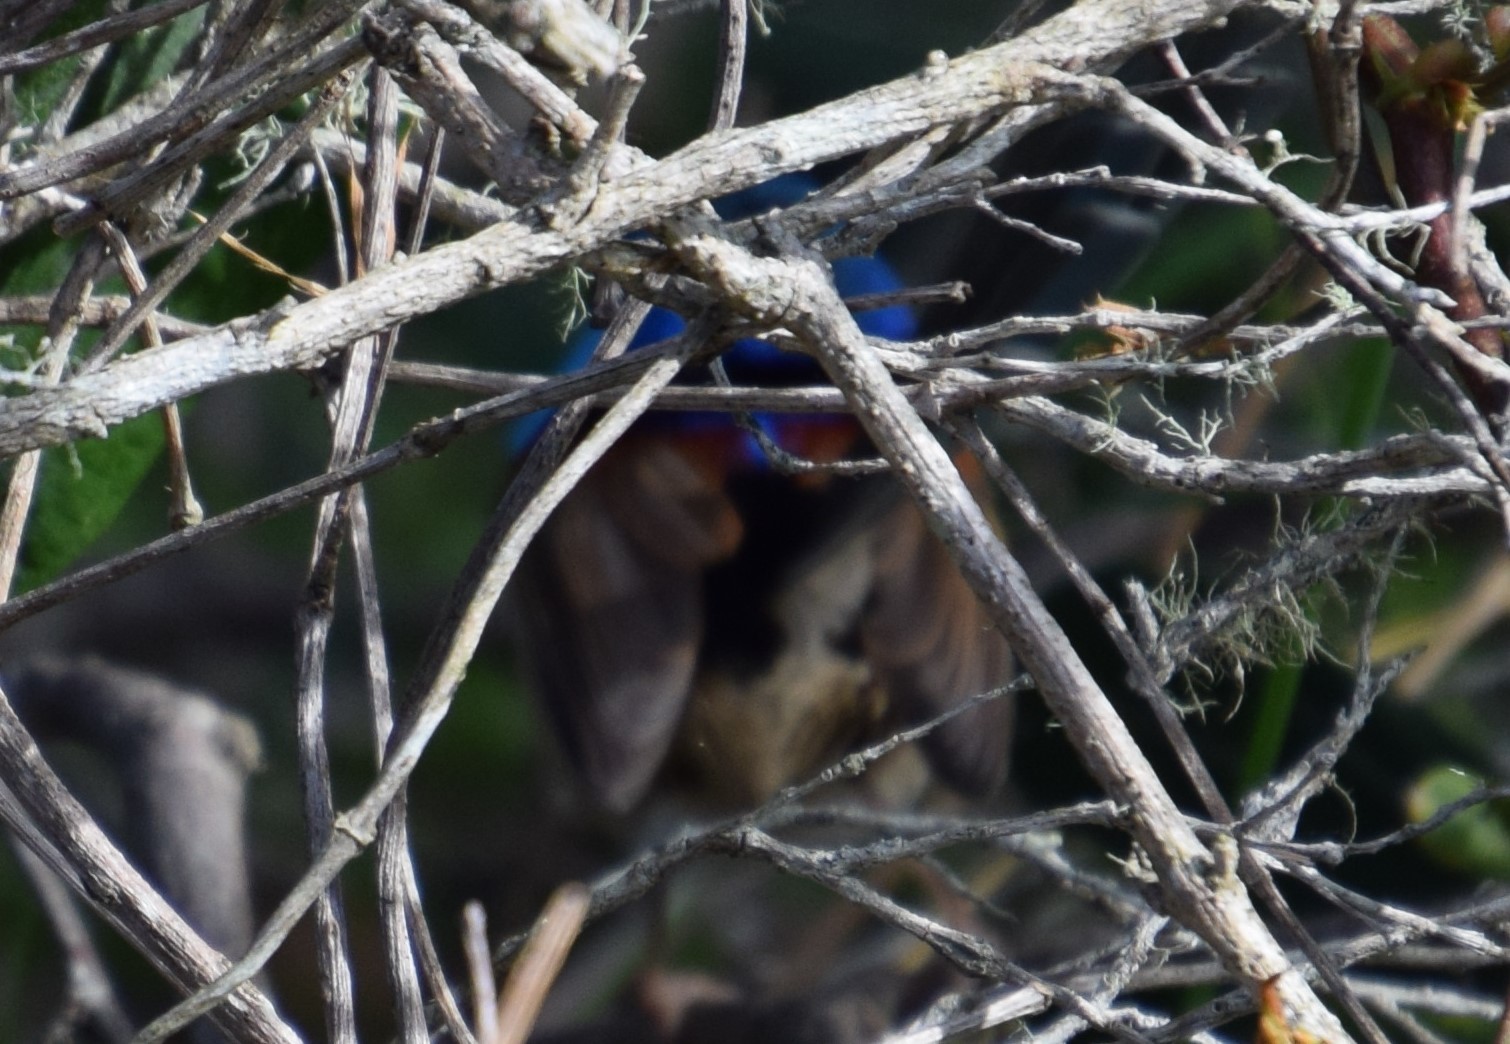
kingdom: Animalia
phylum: Chordata
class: Aves
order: Passeriformes
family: Maluridae
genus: Malurus
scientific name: Malurus lamberti
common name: Variegated fairywren
